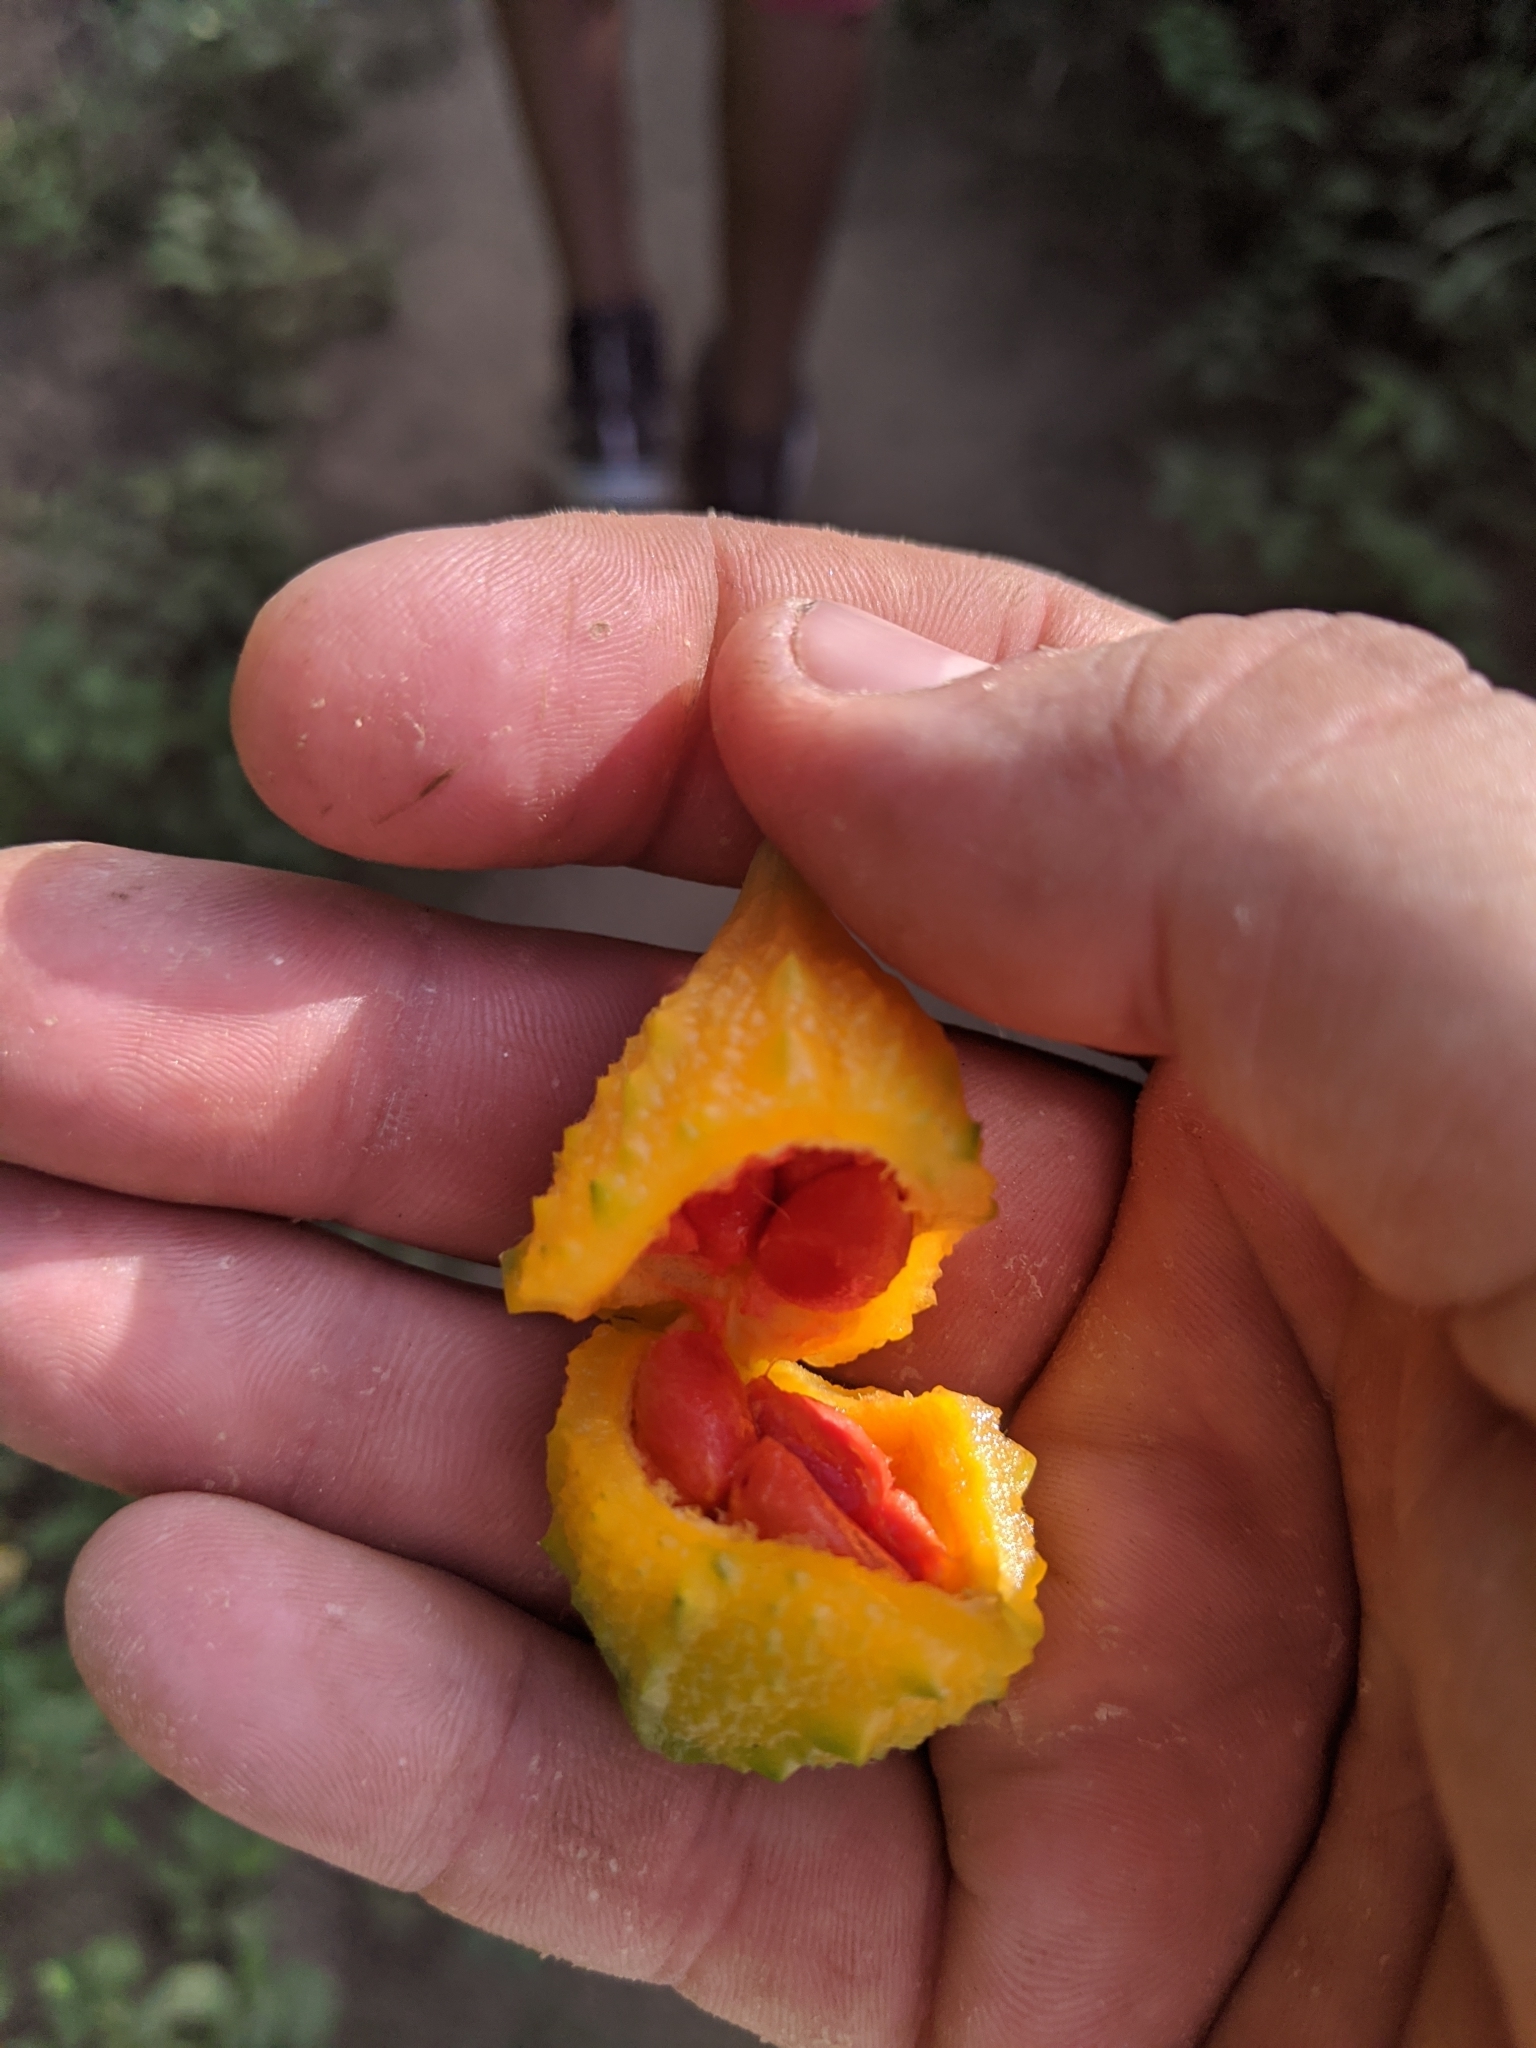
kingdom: Plantae
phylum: Tracheophyta
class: Magnoliopsida
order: Cucurbitales
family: Cucurbitaceae
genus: Momordica
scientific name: Momordica charantia
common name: Balsampear
